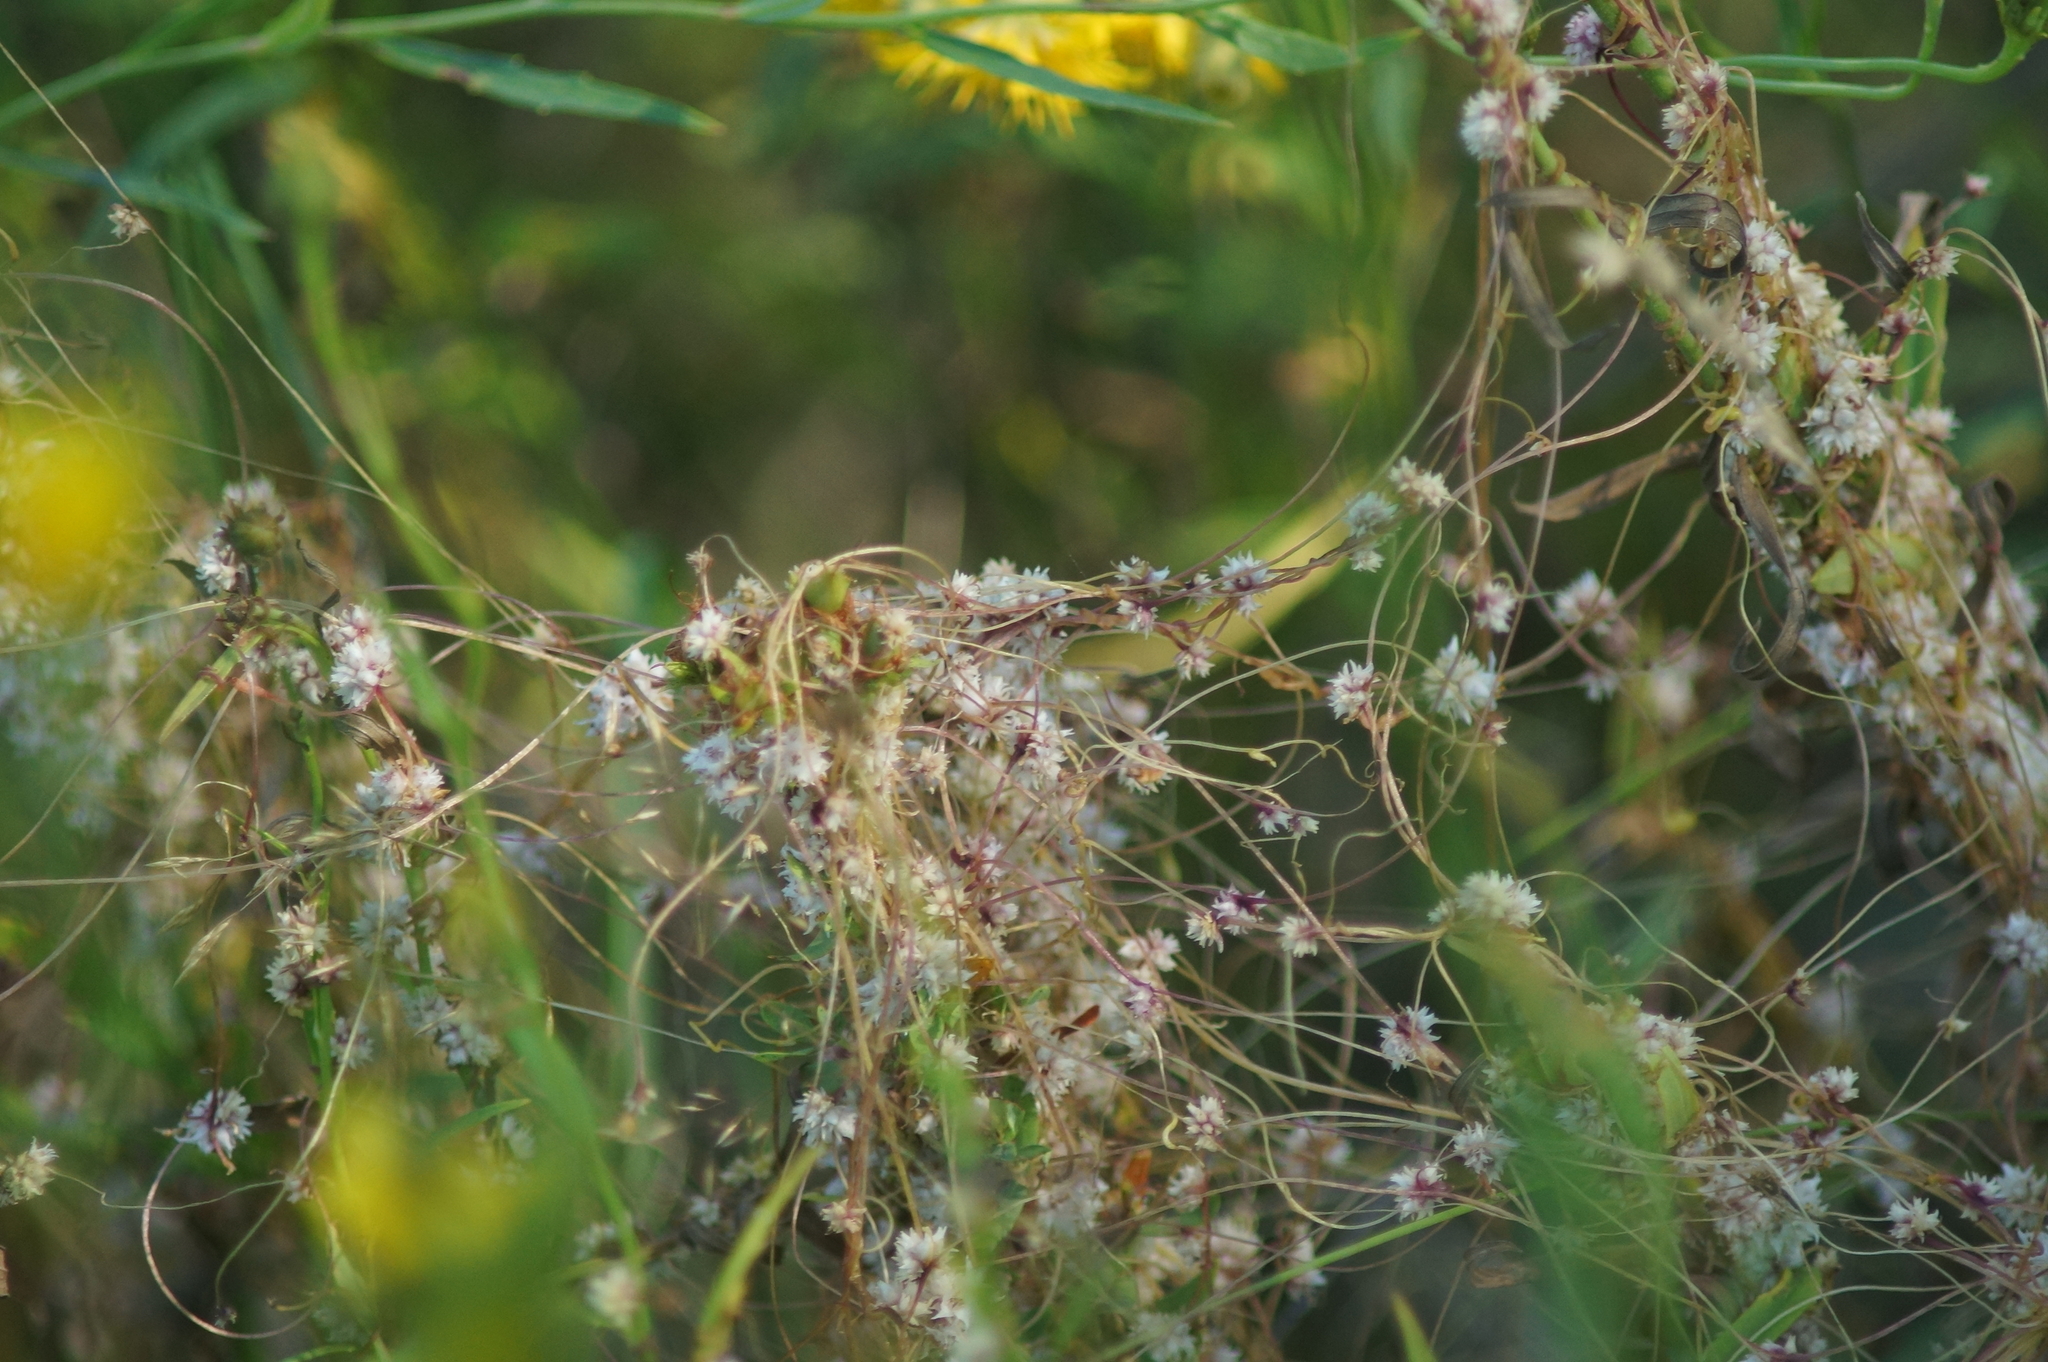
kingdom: Plantae
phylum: Tracheophyta
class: Magnoliopsida
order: Solanales
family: Convolvulaceae
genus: Cuscuta
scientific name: Cuscuta epithymum
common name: Clover dodder
